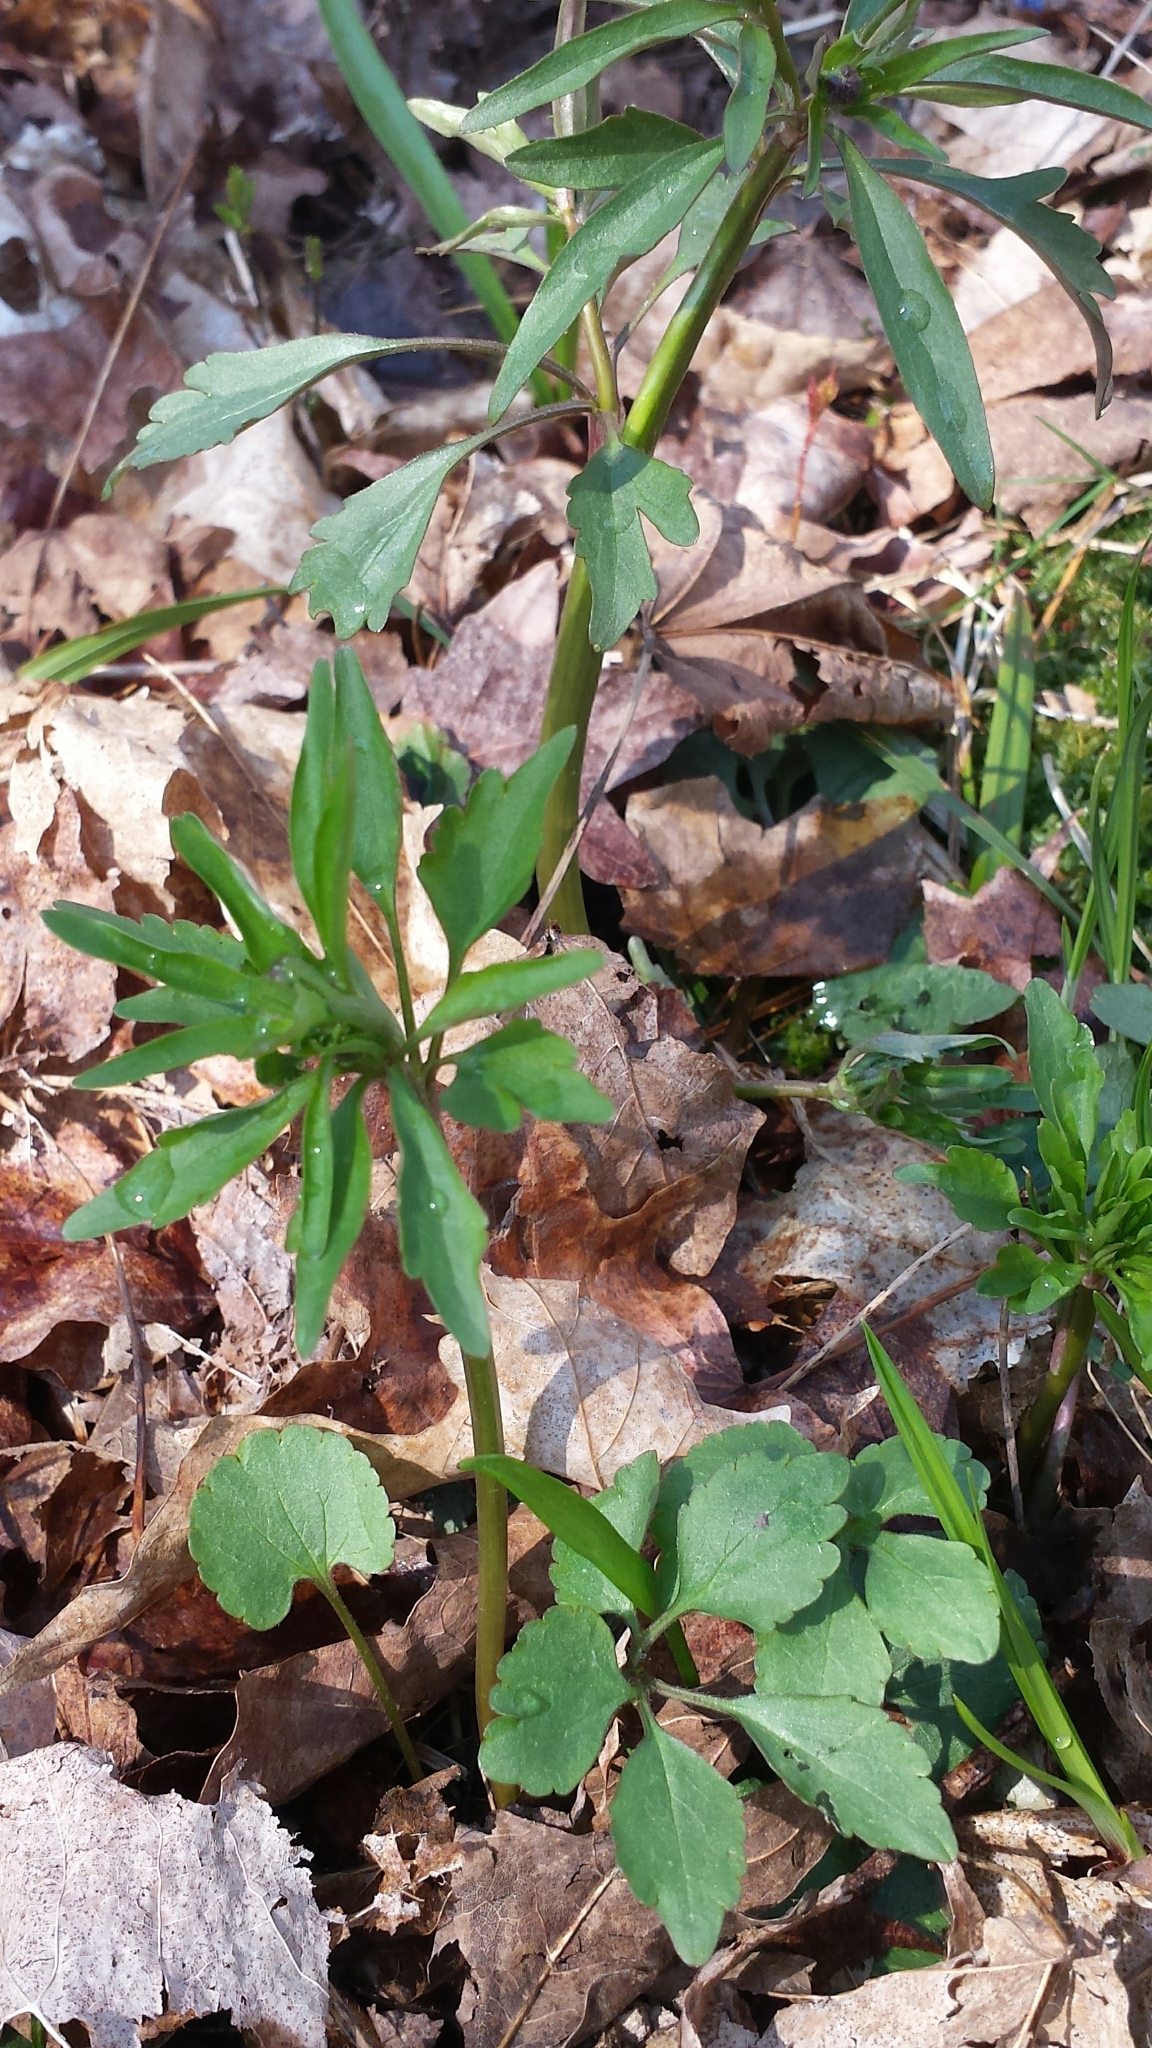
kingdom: Plantae
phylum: Tracheophyta
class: Magnoliopsida
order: Ranunculales
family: Ranunculaceae
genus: Ranunculus
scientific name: Ranunculus abortivus
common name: Early wood buttercup
